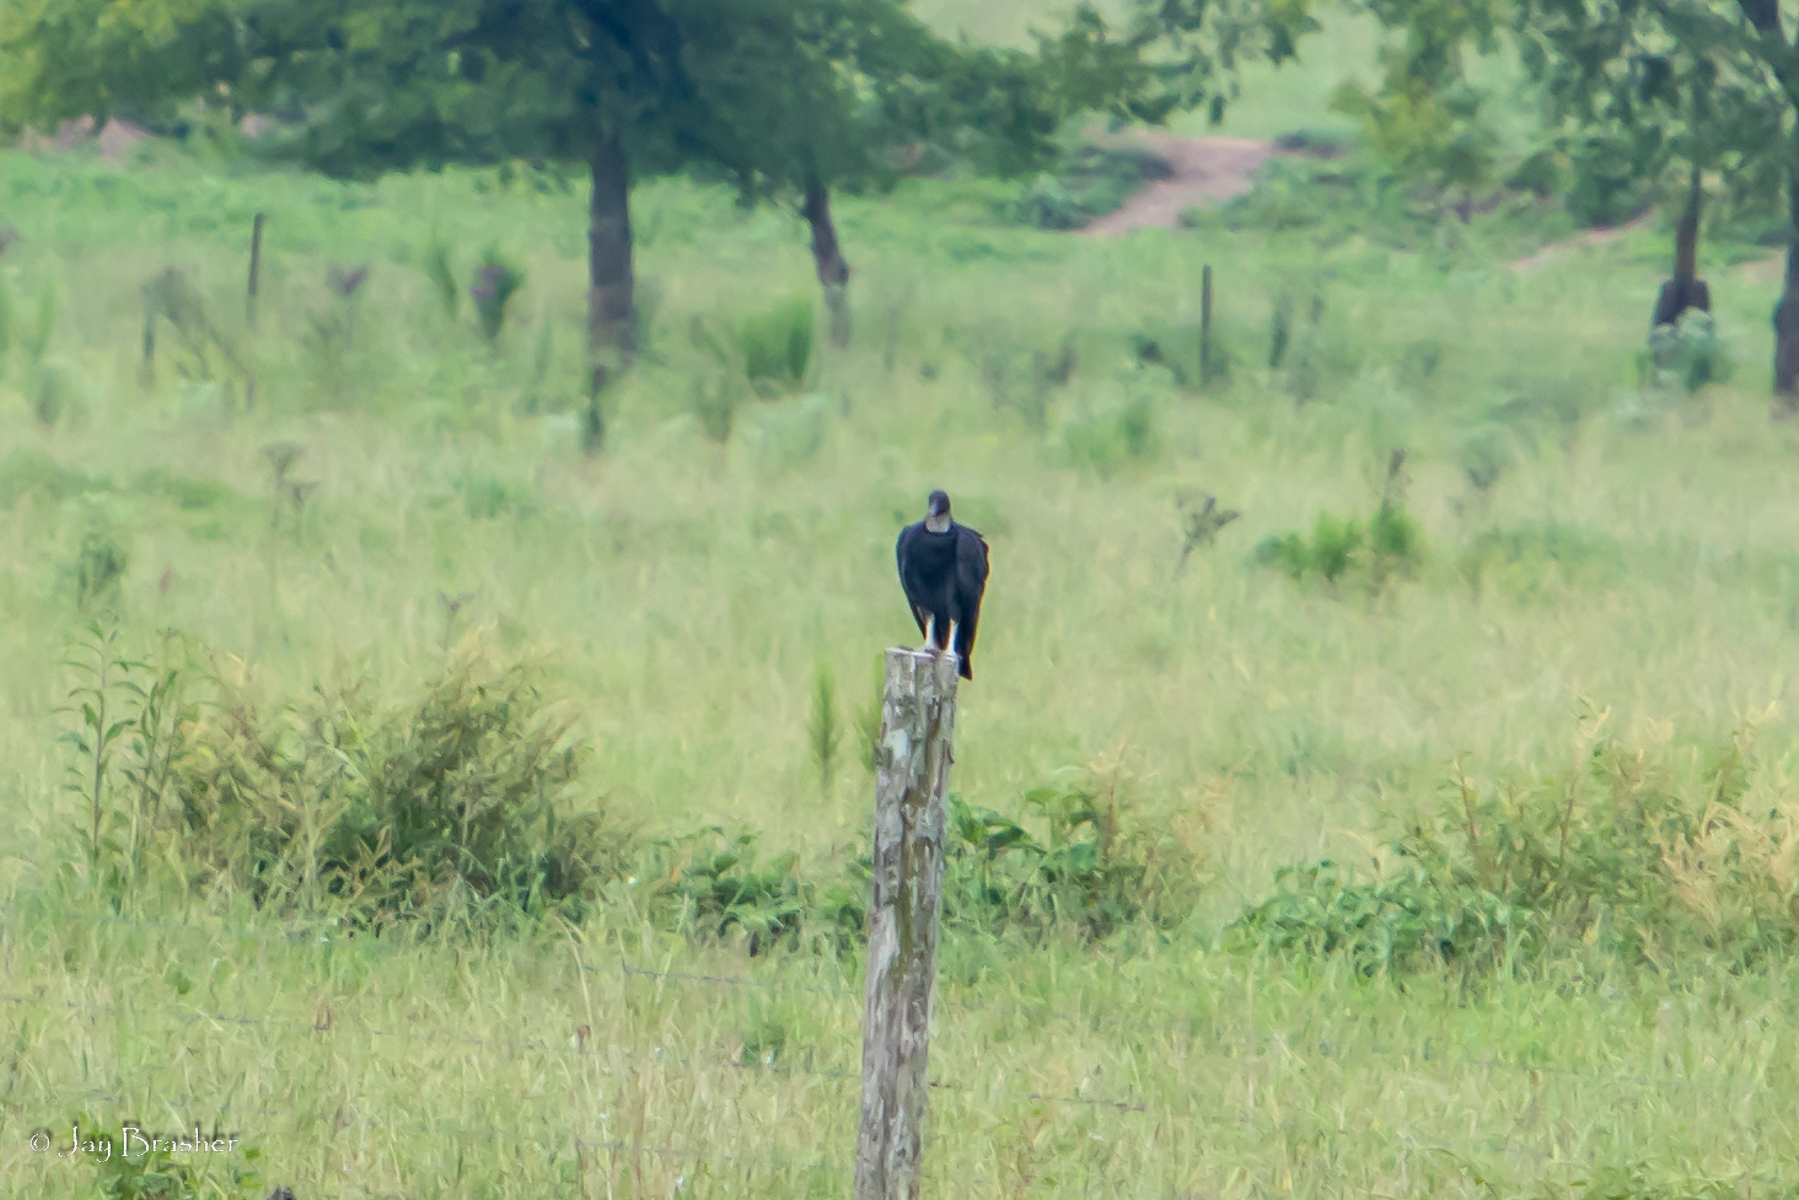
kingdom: Animalia
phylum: Chordata
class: Aves
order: Accipitriformes
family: Cathartidae
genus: Coragyps
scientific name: Coragyps atratus
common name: Black vulture
